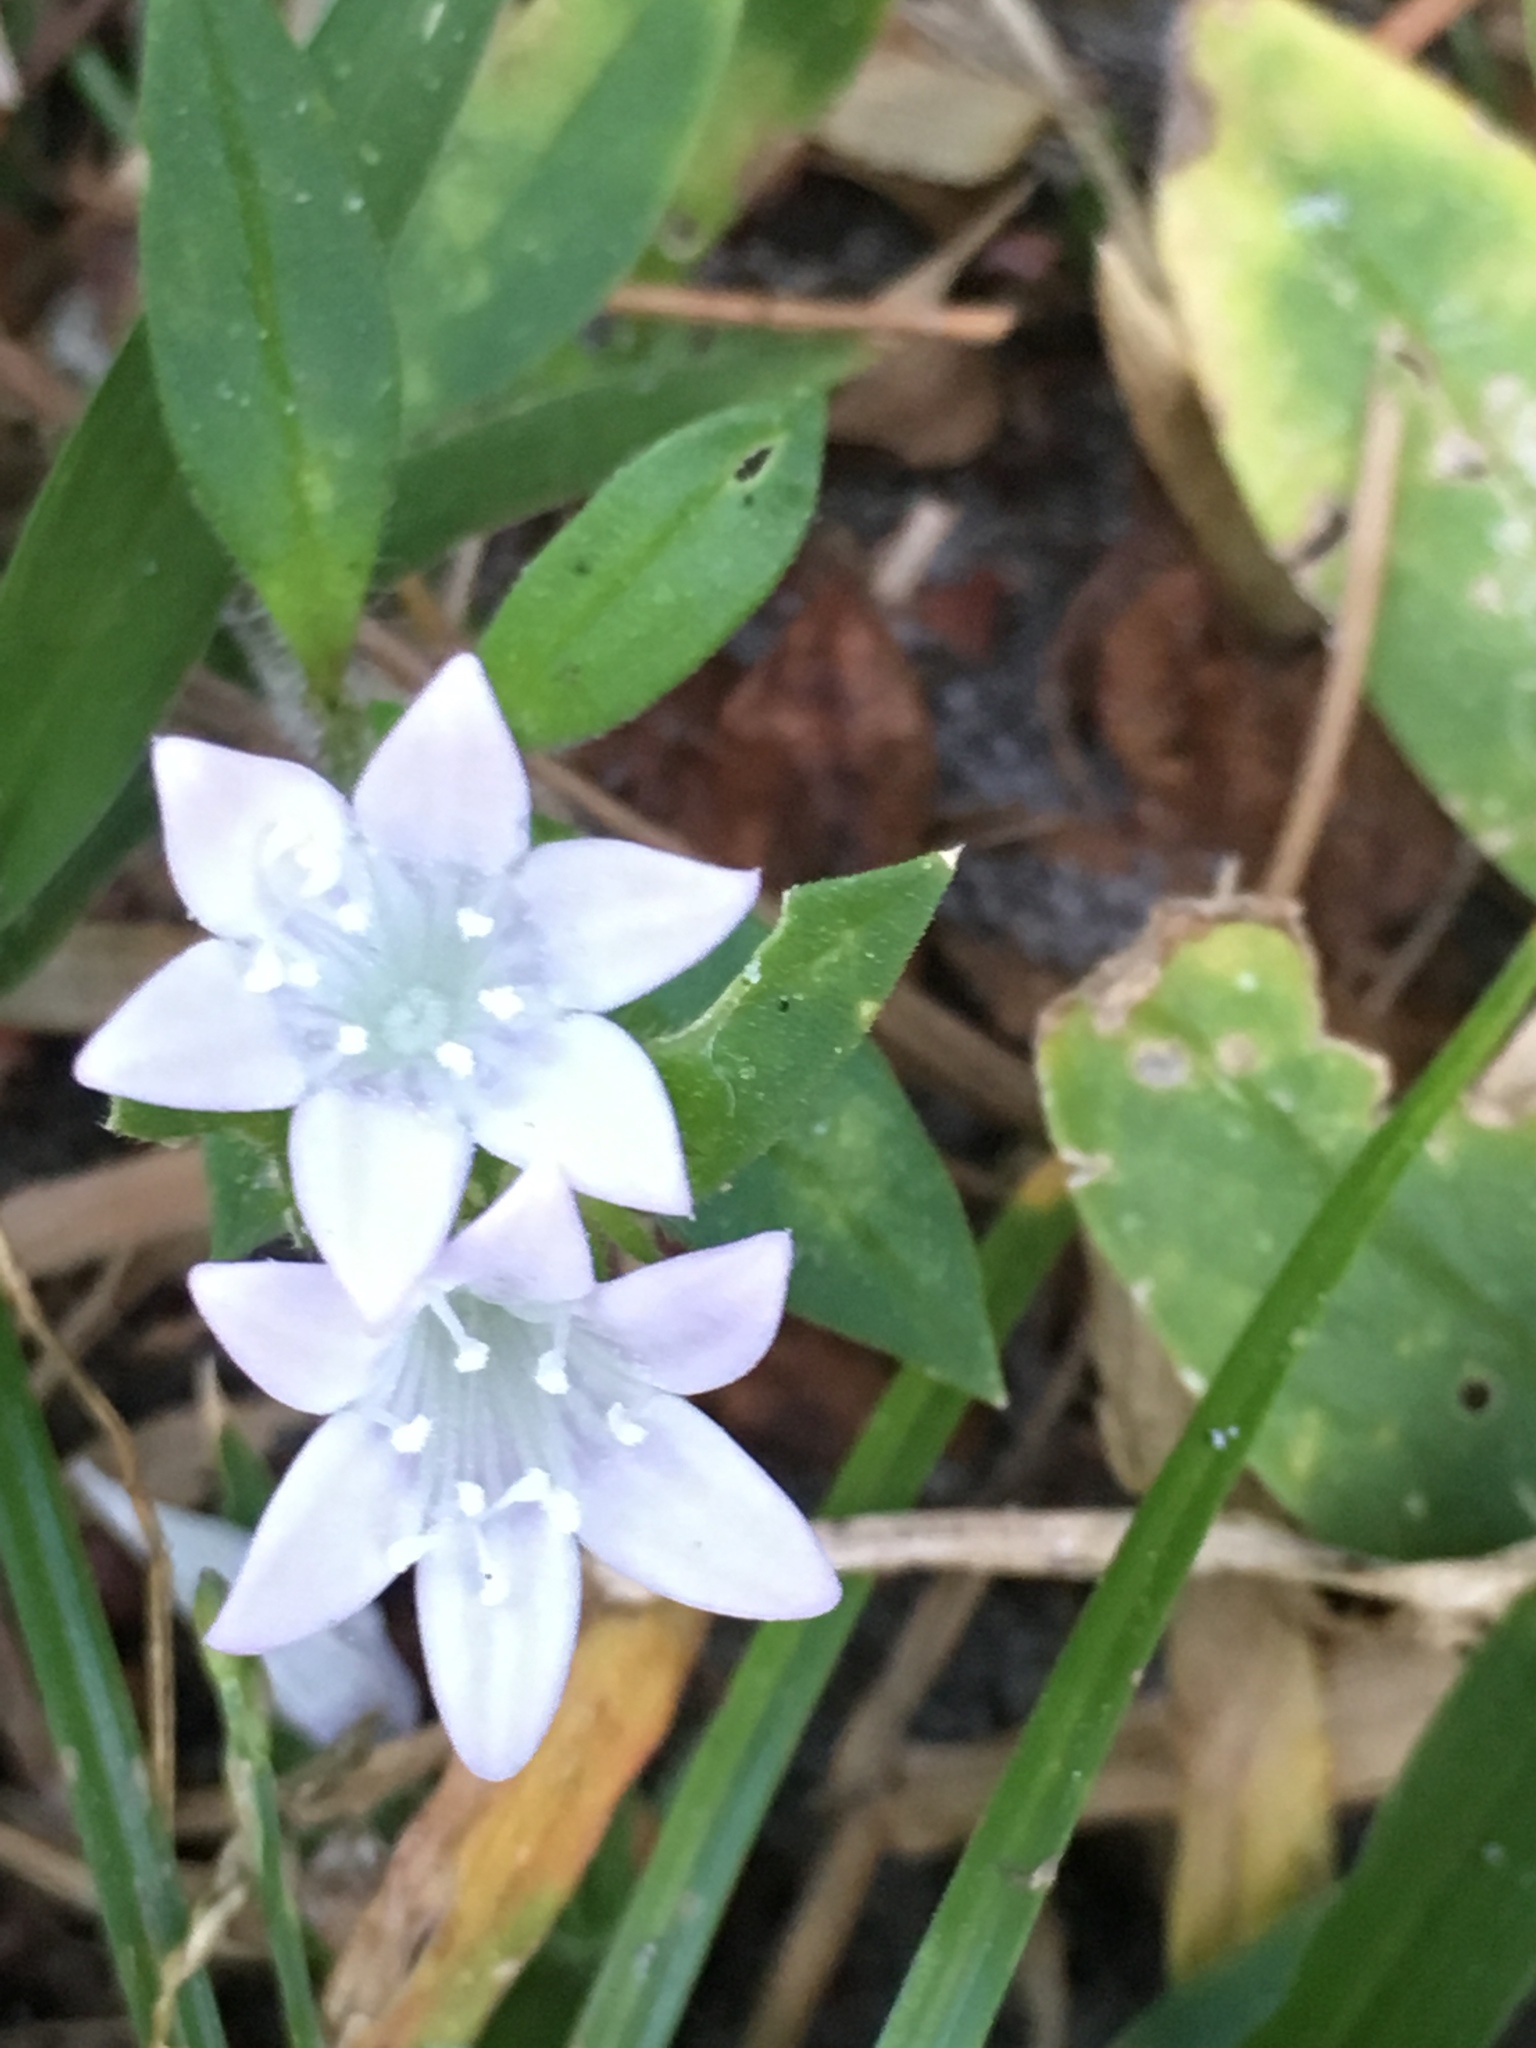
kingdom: Plantae
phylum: Tracheophyta
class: Magnoliopsida
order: Gentianales
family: Rubiaceae
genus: Richardia
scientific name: Richardia grandiflora
